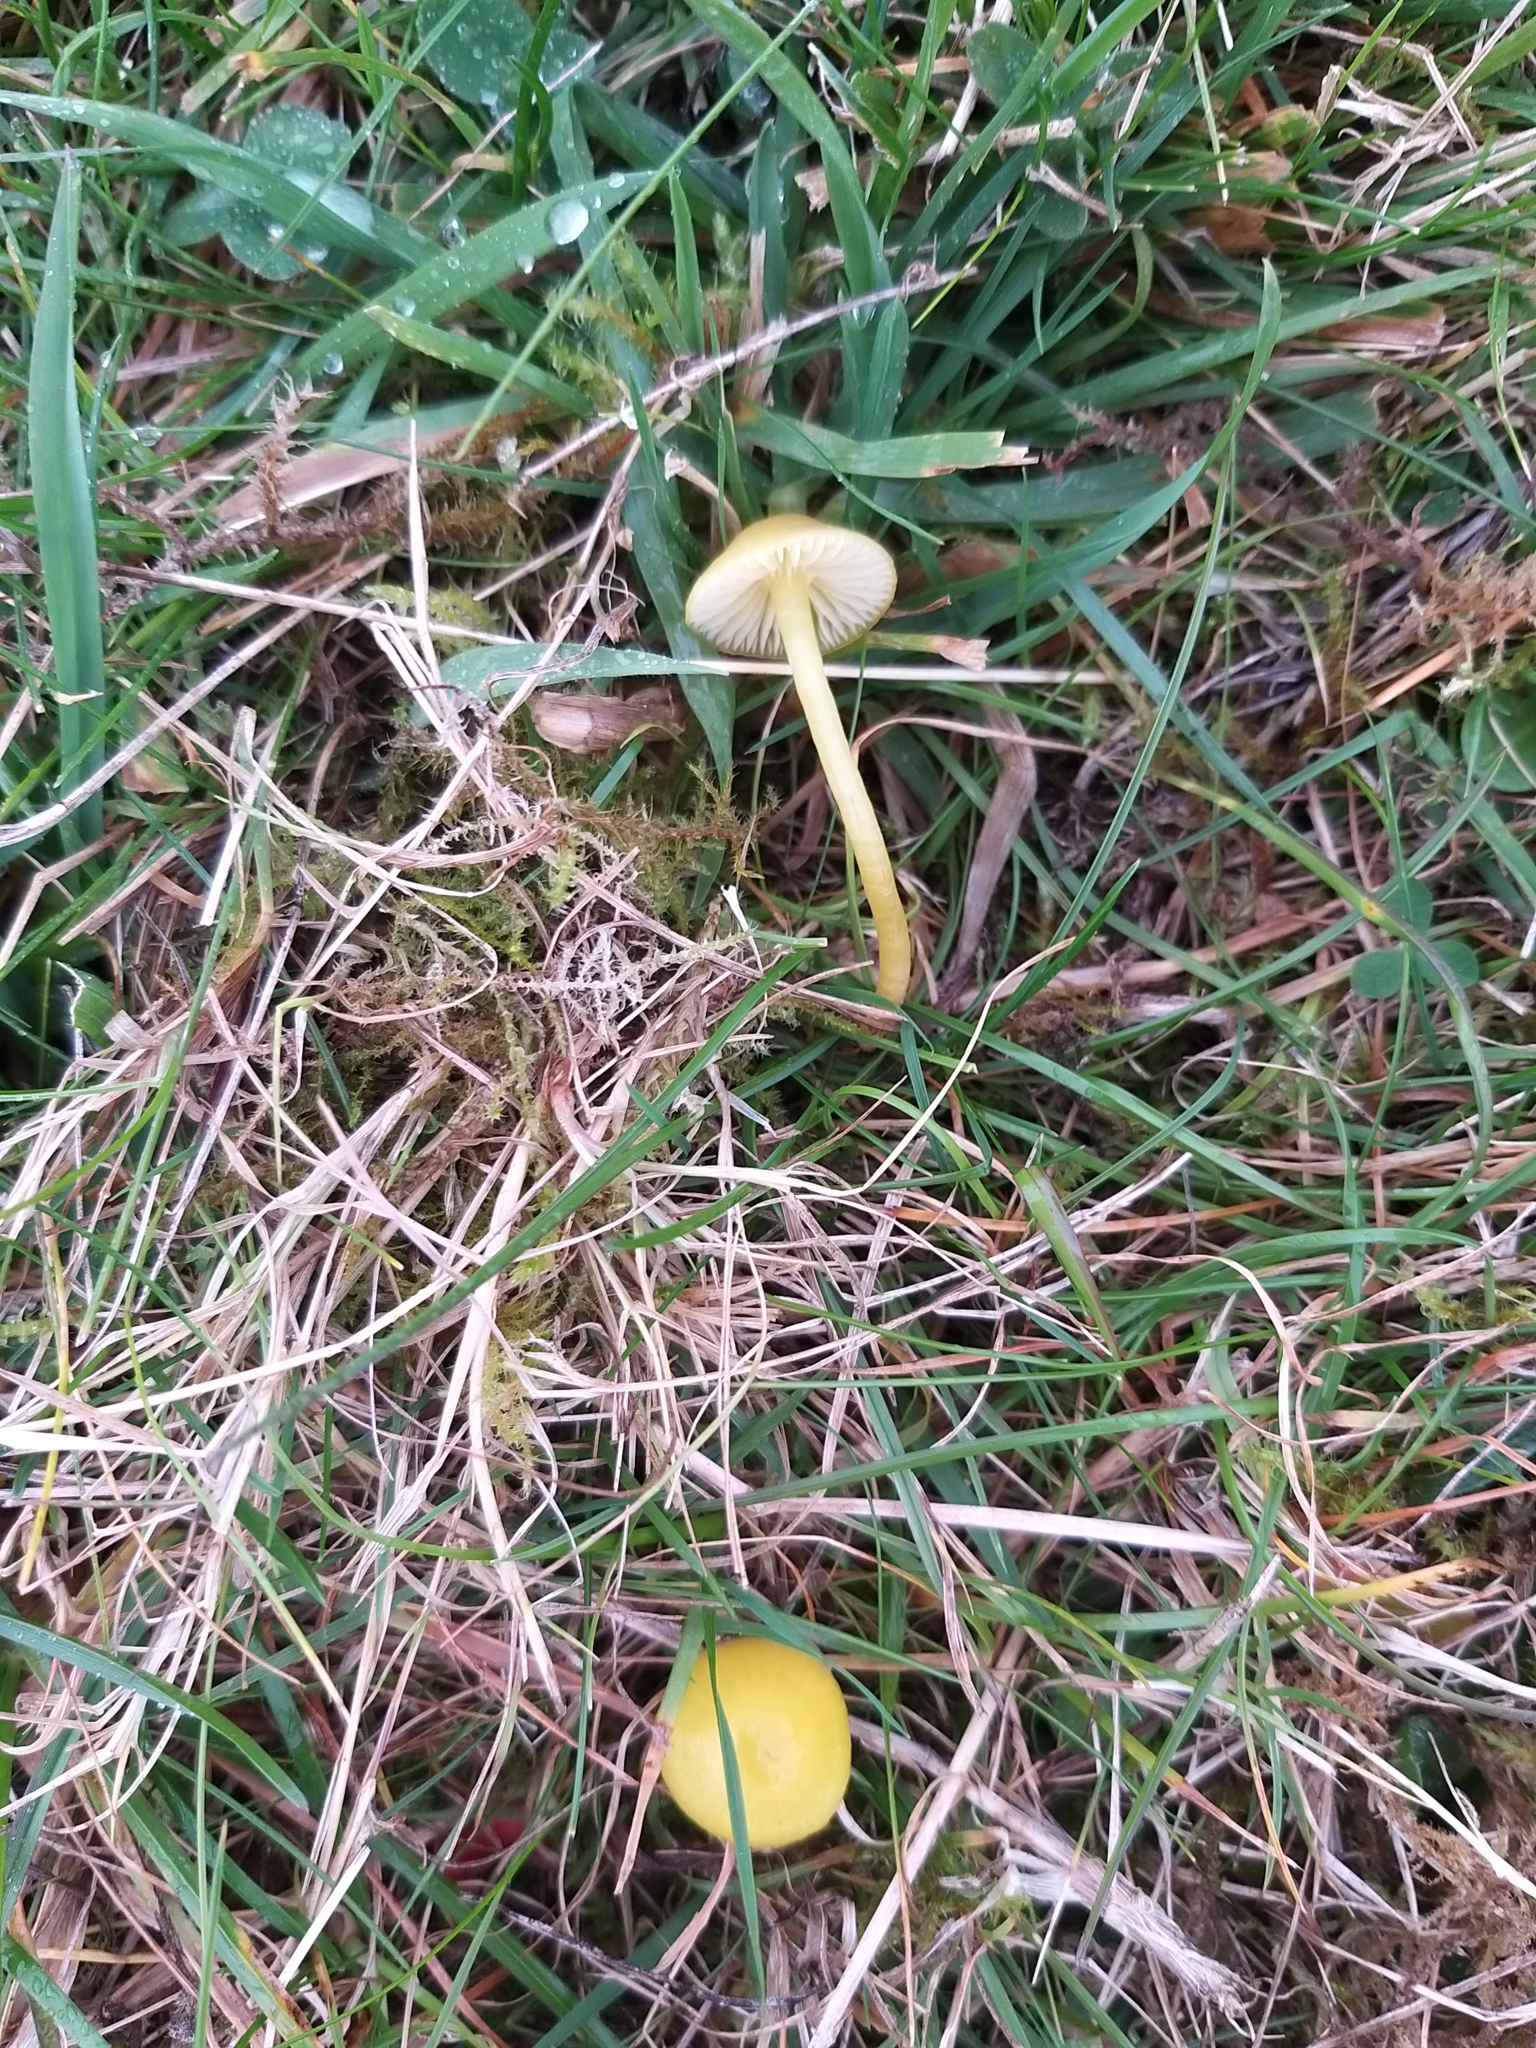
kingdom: Fungi
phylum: Basidiomycota
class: Agaricomycetes
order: Agaricales
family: Hygrophoraceae
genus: Hygrocybe
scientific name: Hygrocybe ceracea
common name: Butter waxcap
